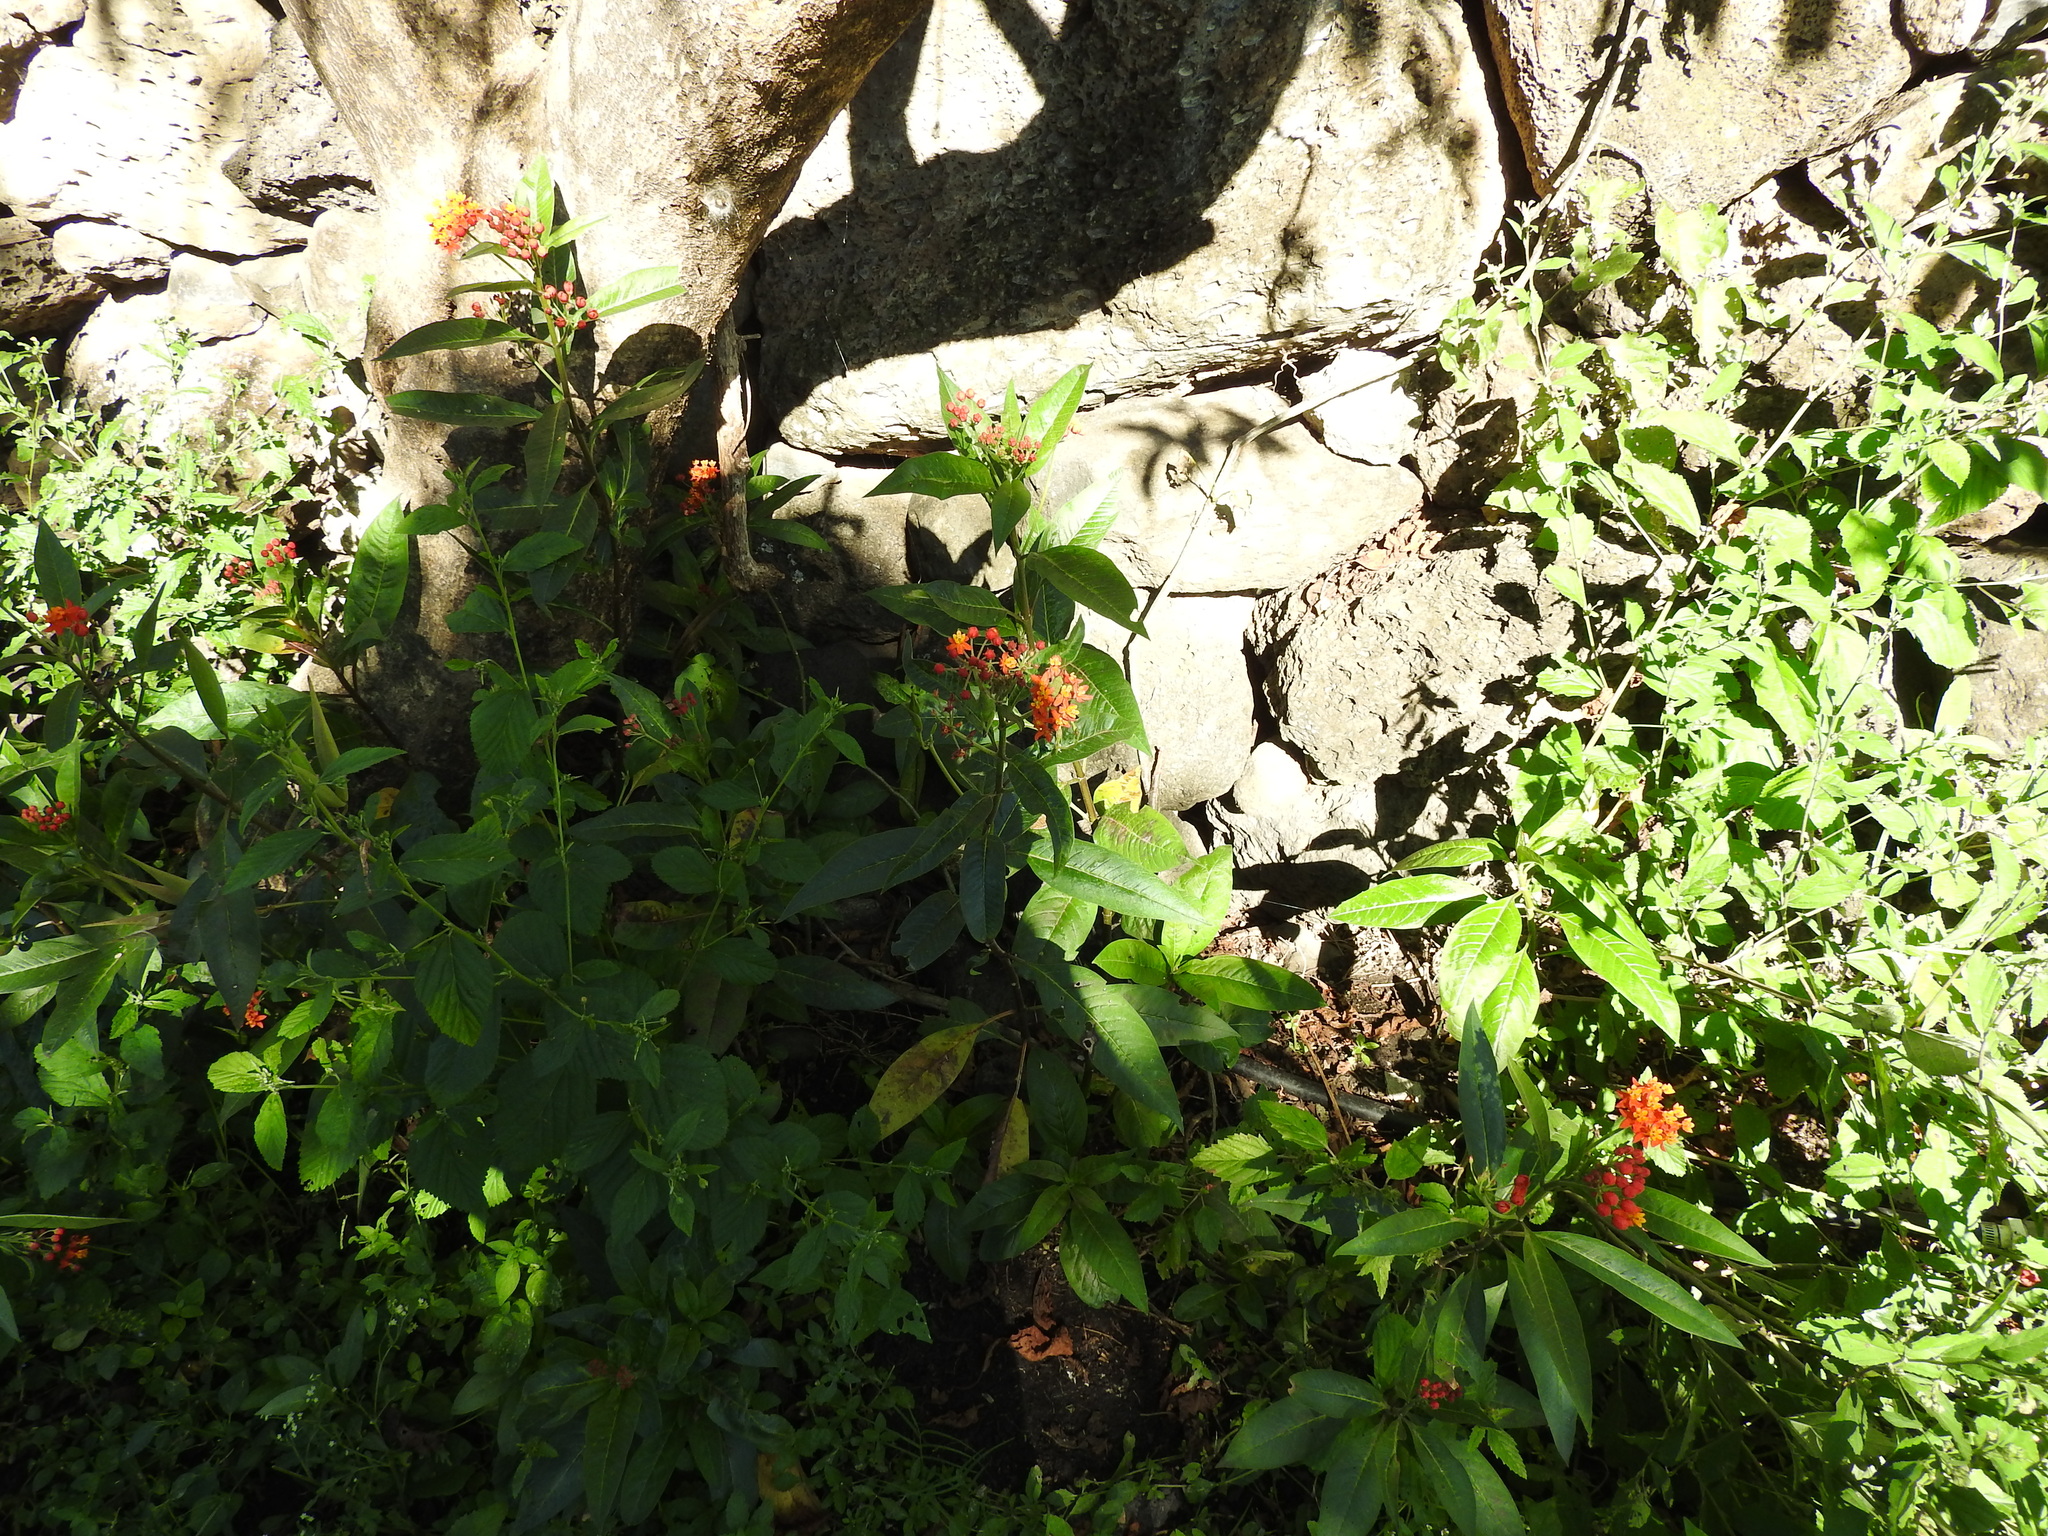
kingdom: Plantae
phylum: Tracheophyta
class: Magnoliopsida
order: Gentianales
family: Apocynaceae
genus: Asclepias
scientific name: Asclepias curassavica
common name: Bloodflower
